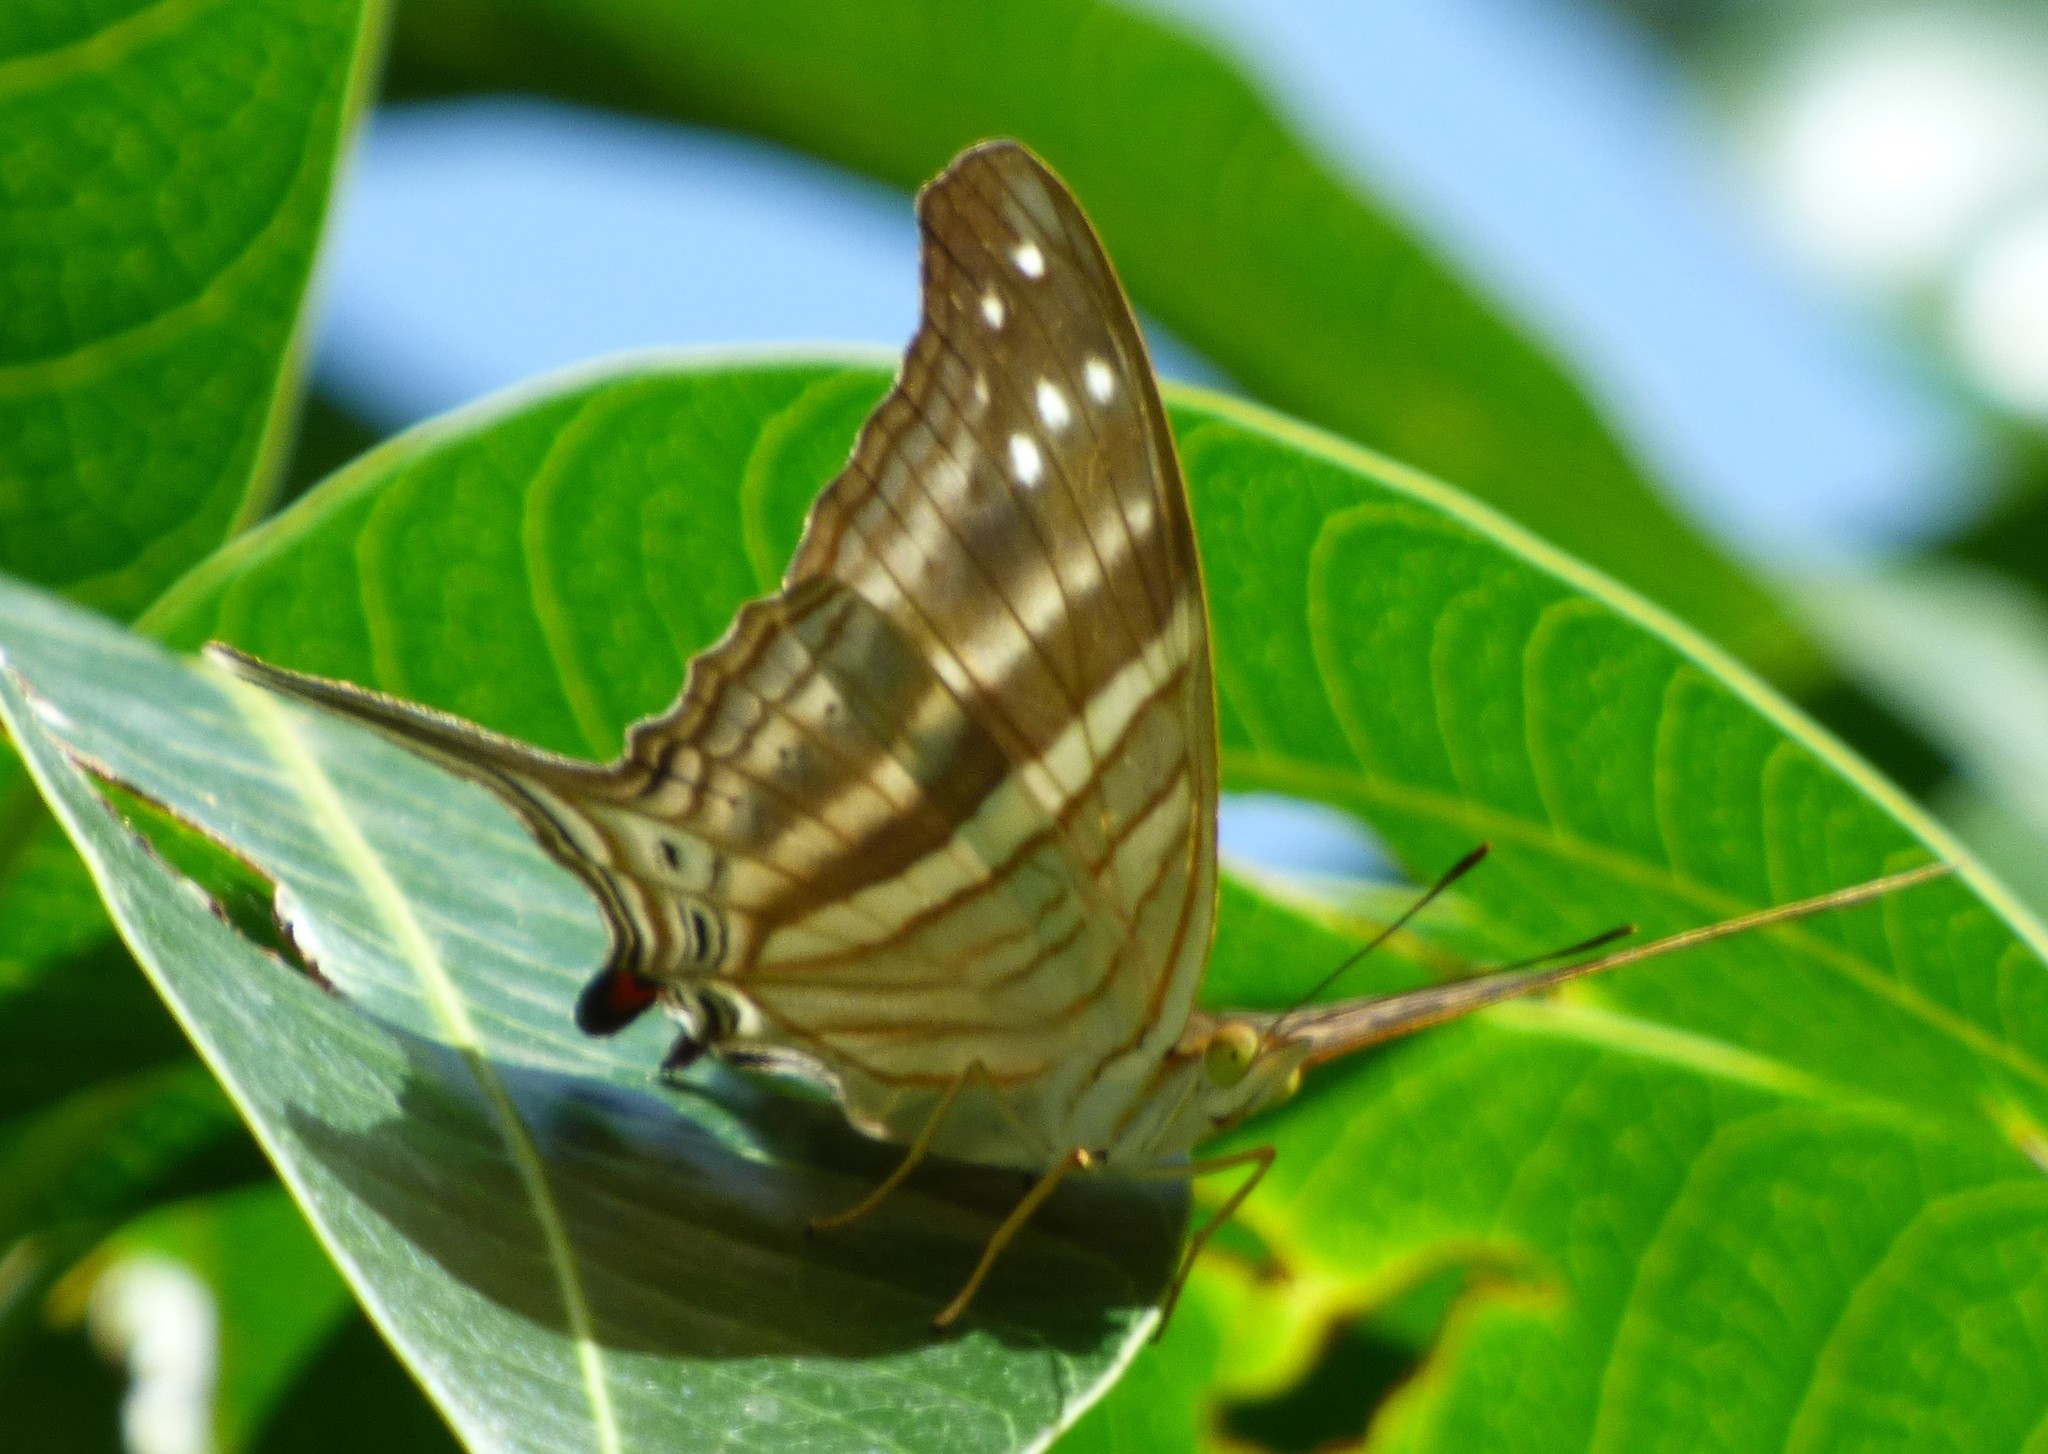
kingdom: Animalia
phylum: Arthropoda
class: Insecta
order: Lepidoptera
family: Nymphalidae
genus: Marpesia
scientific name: Marpesia chiron
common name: Many-banded daggerwing
